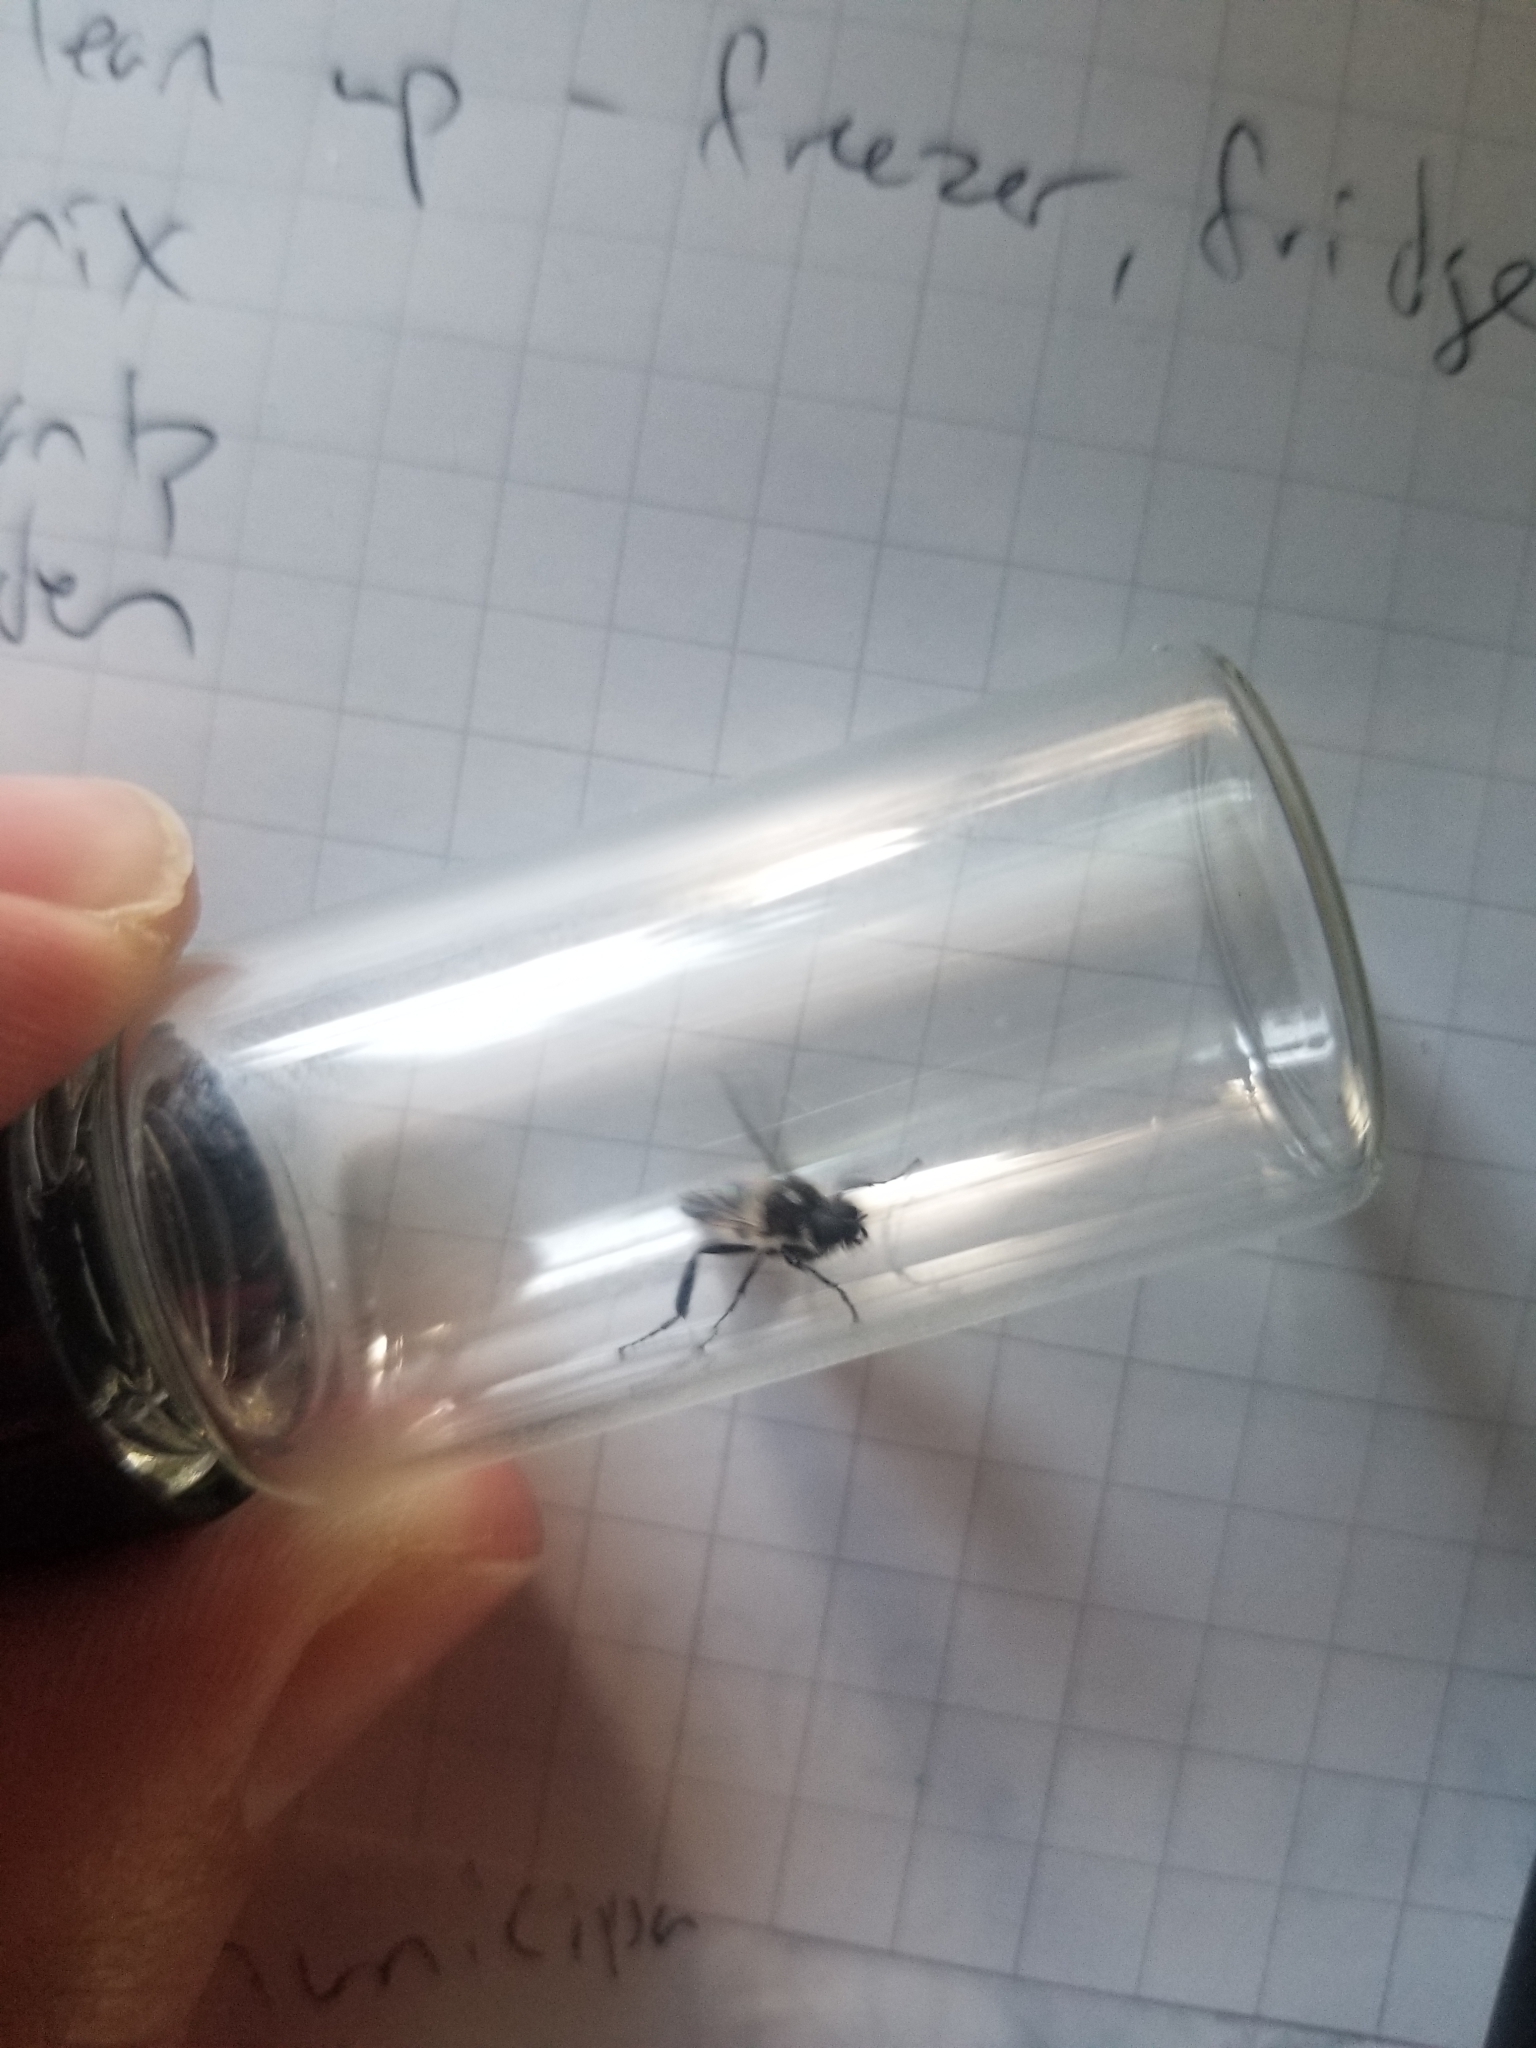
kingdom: Animalia
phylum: Arthropoda
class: Insecta
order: Diptera
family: Bibionidae
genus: Bibio
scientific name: Bibio albipennis
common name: White-winged march fly
